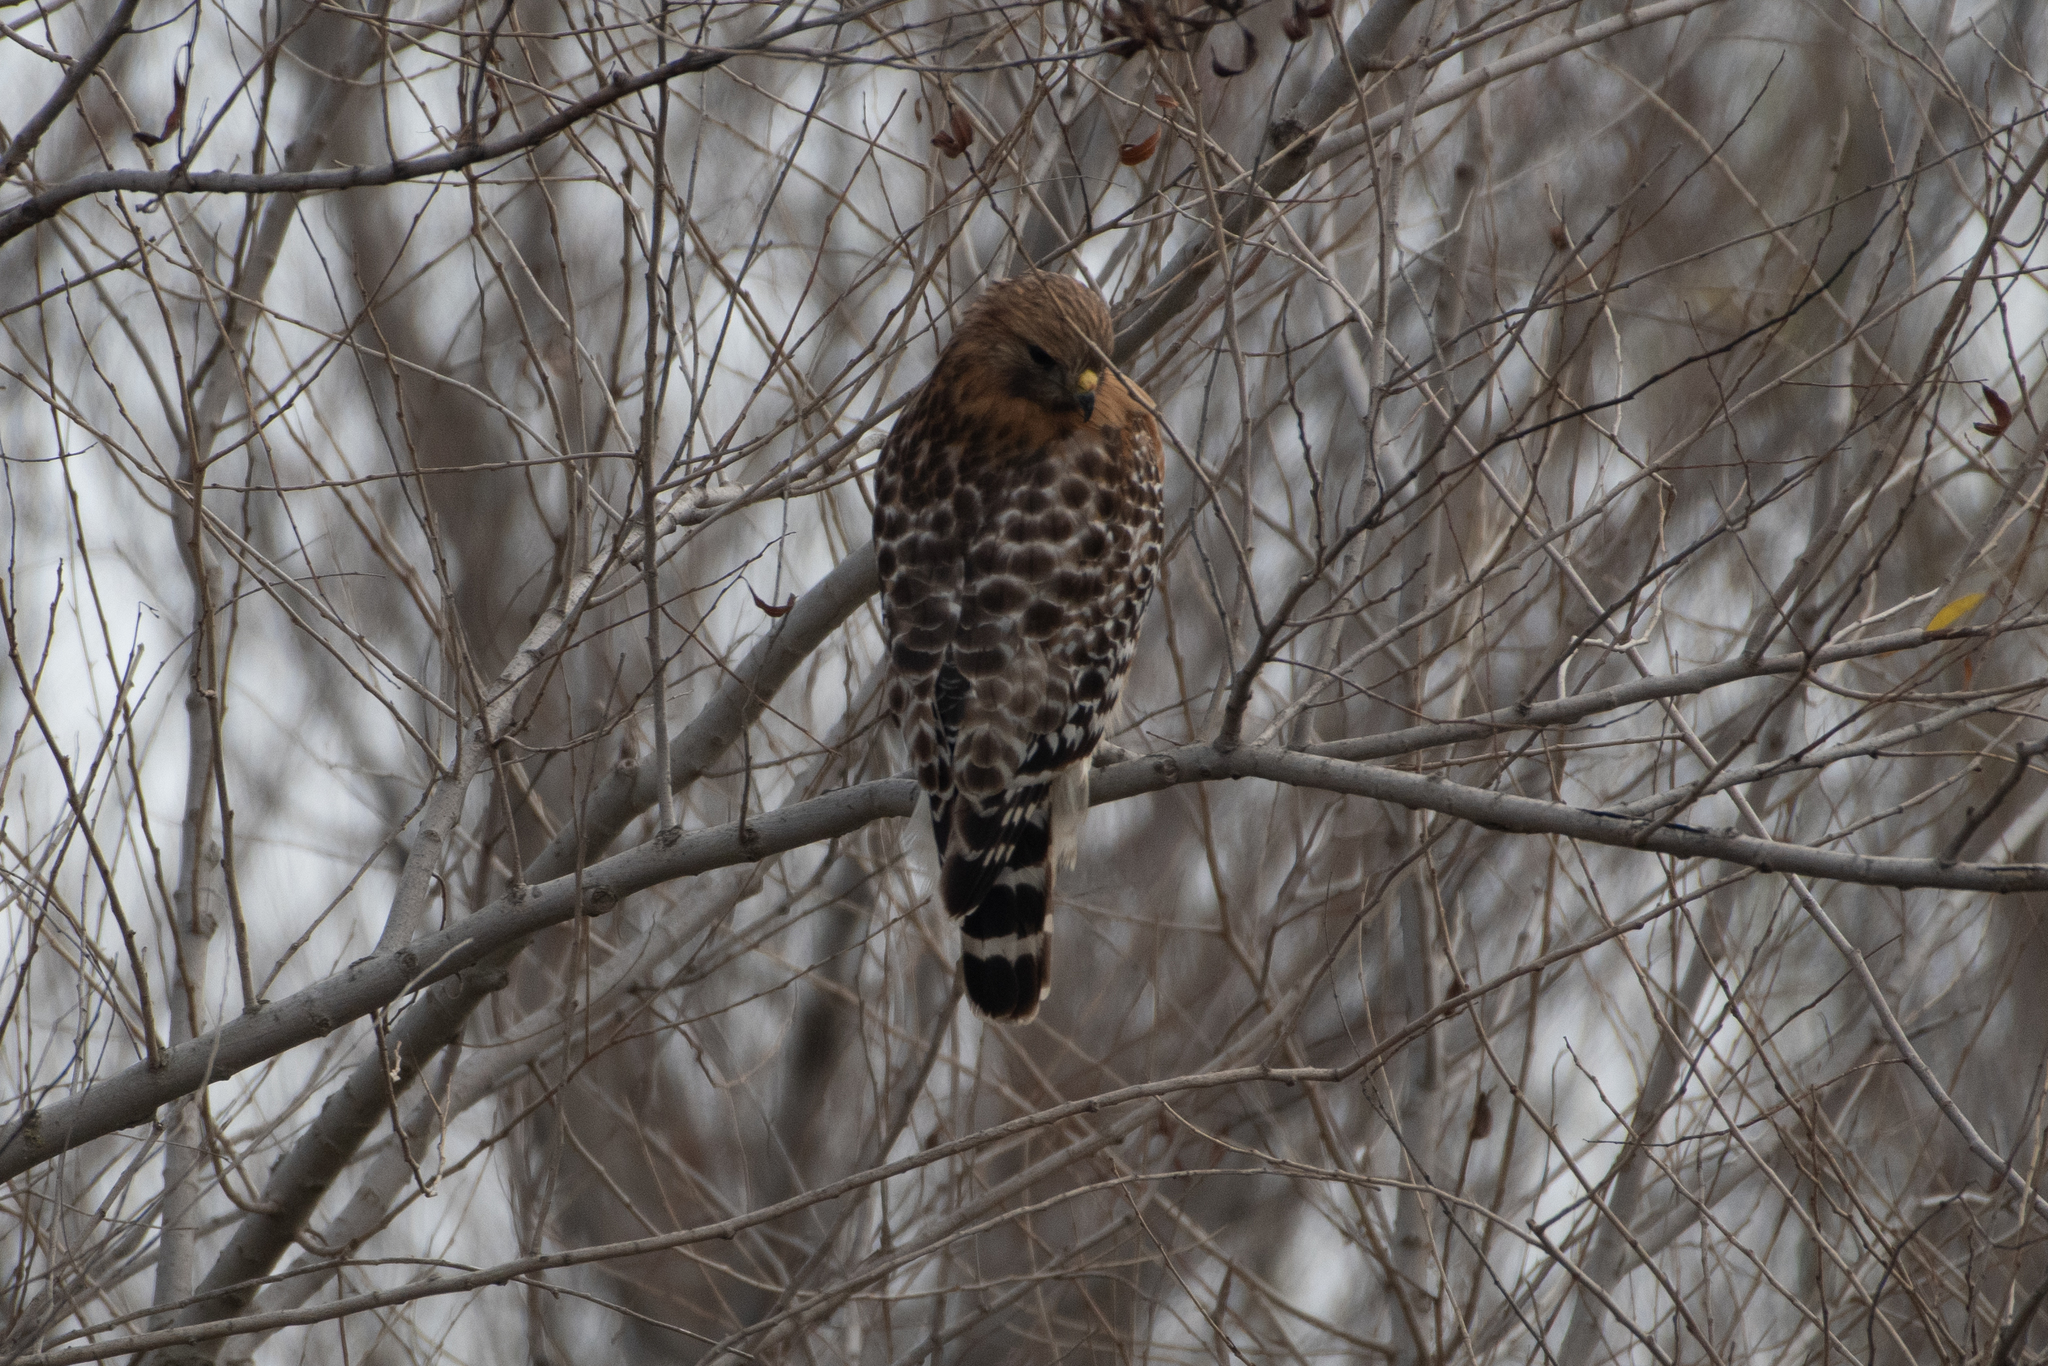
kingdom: Animalia
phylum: Chordata
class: Aves
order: Accipitriformes
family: Accipitridae
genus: Buteo
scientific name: Buteo lineatus
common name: Red-shouldered hawk
